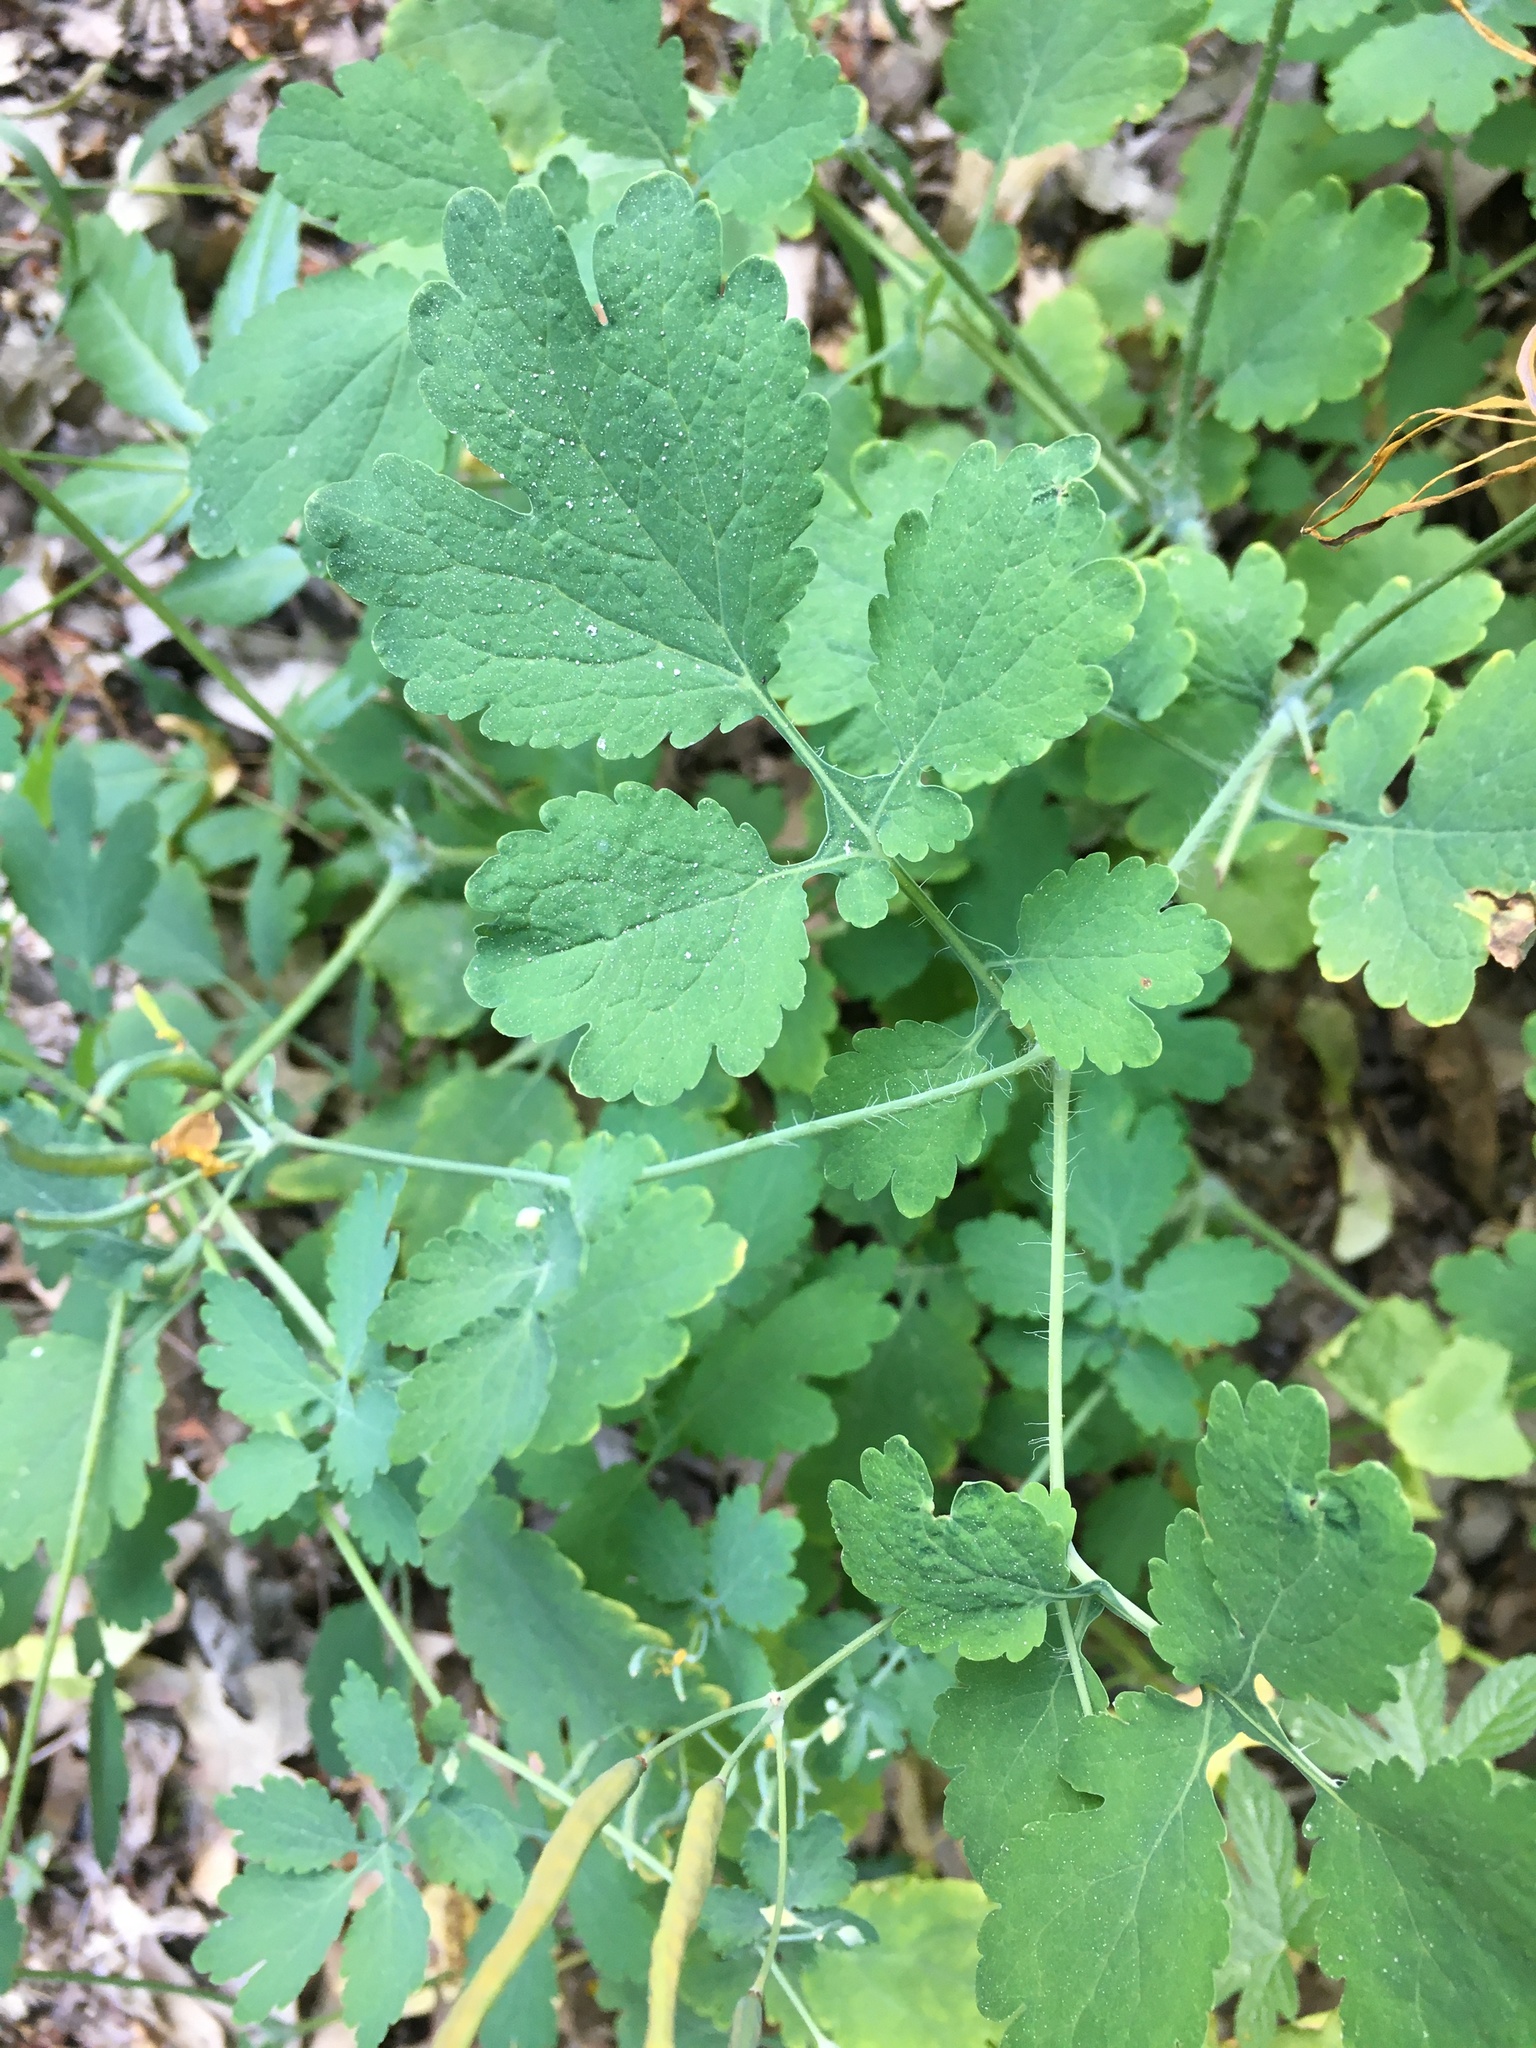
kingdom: Plantae
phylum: Tracheophyta
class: Magnoliopsida
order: Ranunculales
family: Papaveraceae
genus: Chelidonium
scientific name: Chelidonium majus
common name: Greater celandine
